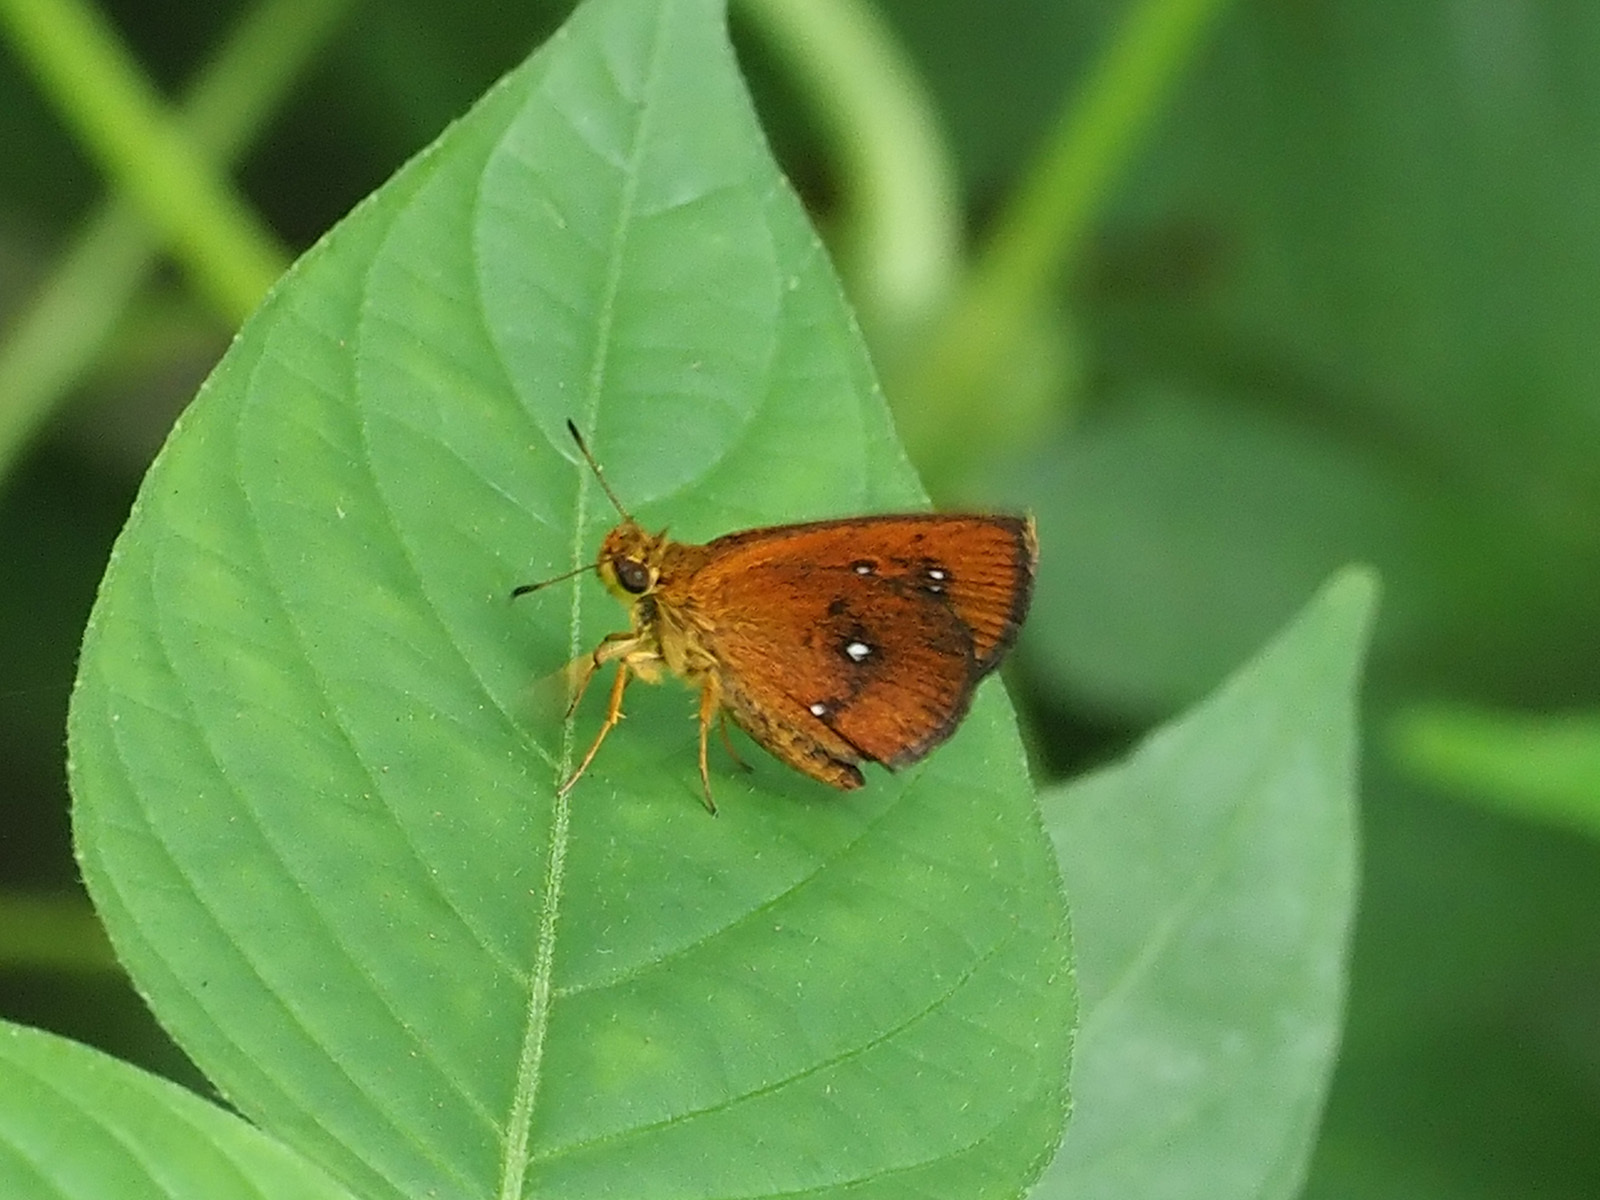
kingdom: Animalia
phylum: Arthropoda
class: Insecta
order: Lepidoptera
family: Hesperiidae
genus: Iambrix
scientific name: Iambrix salsala
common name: Chestnut bob
